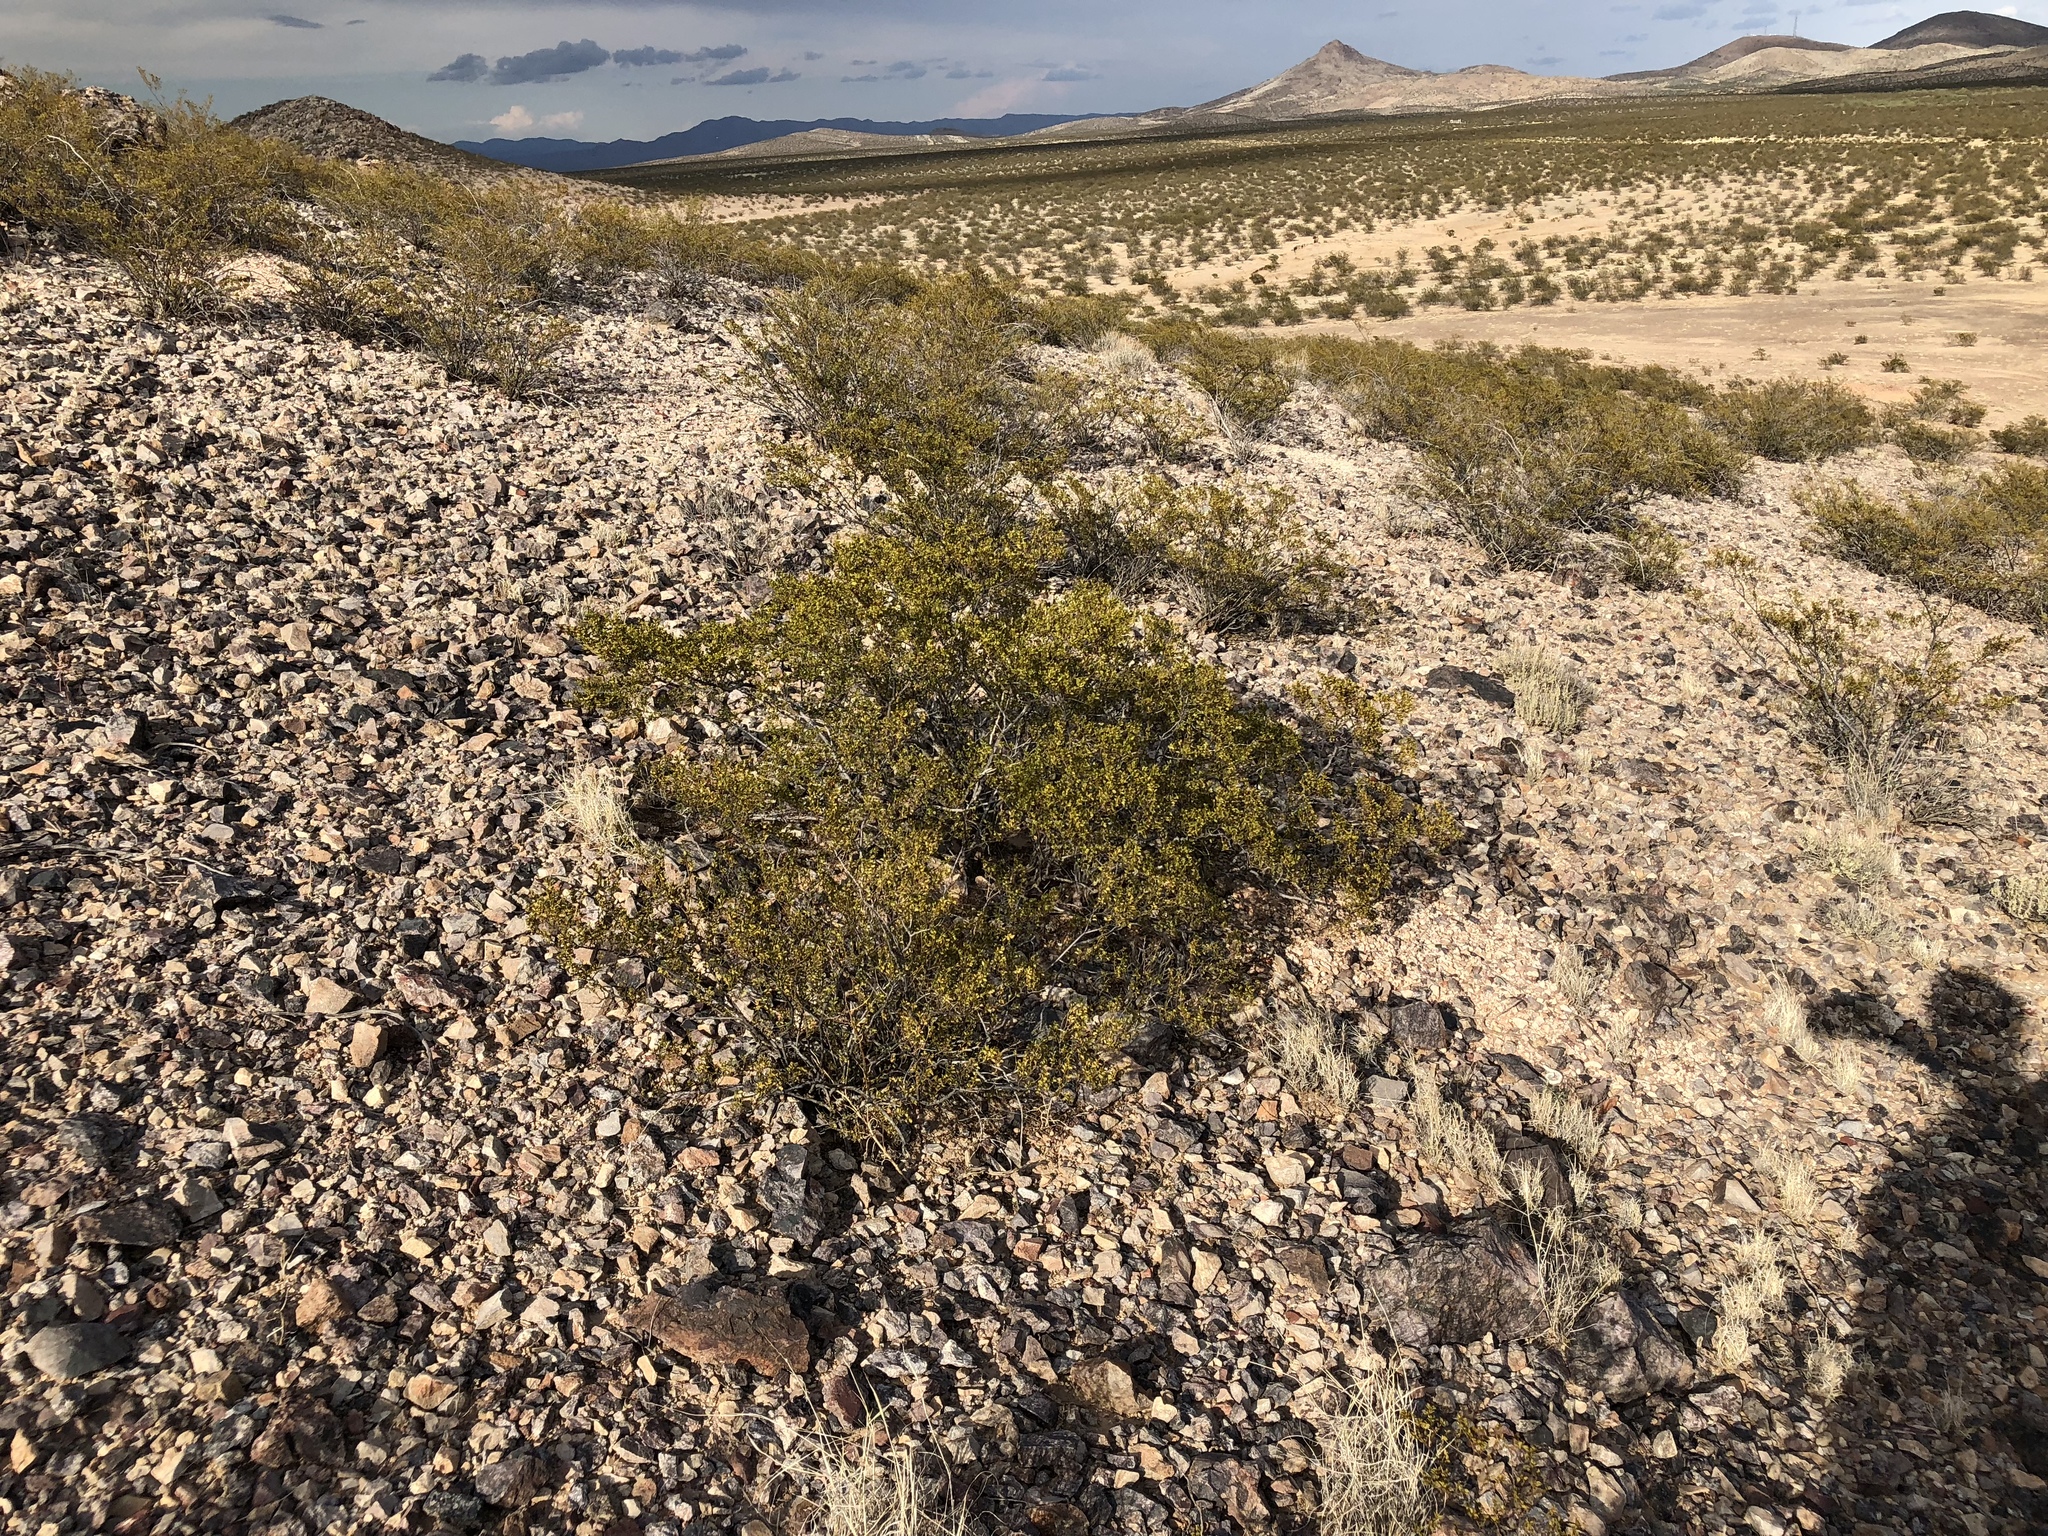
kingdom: Plantae
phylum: Tracheophyta
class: Magnoliopsida
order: Zygophyllales
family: Zygophyllaceae
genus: Larrea
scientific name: Larrea tridentata
